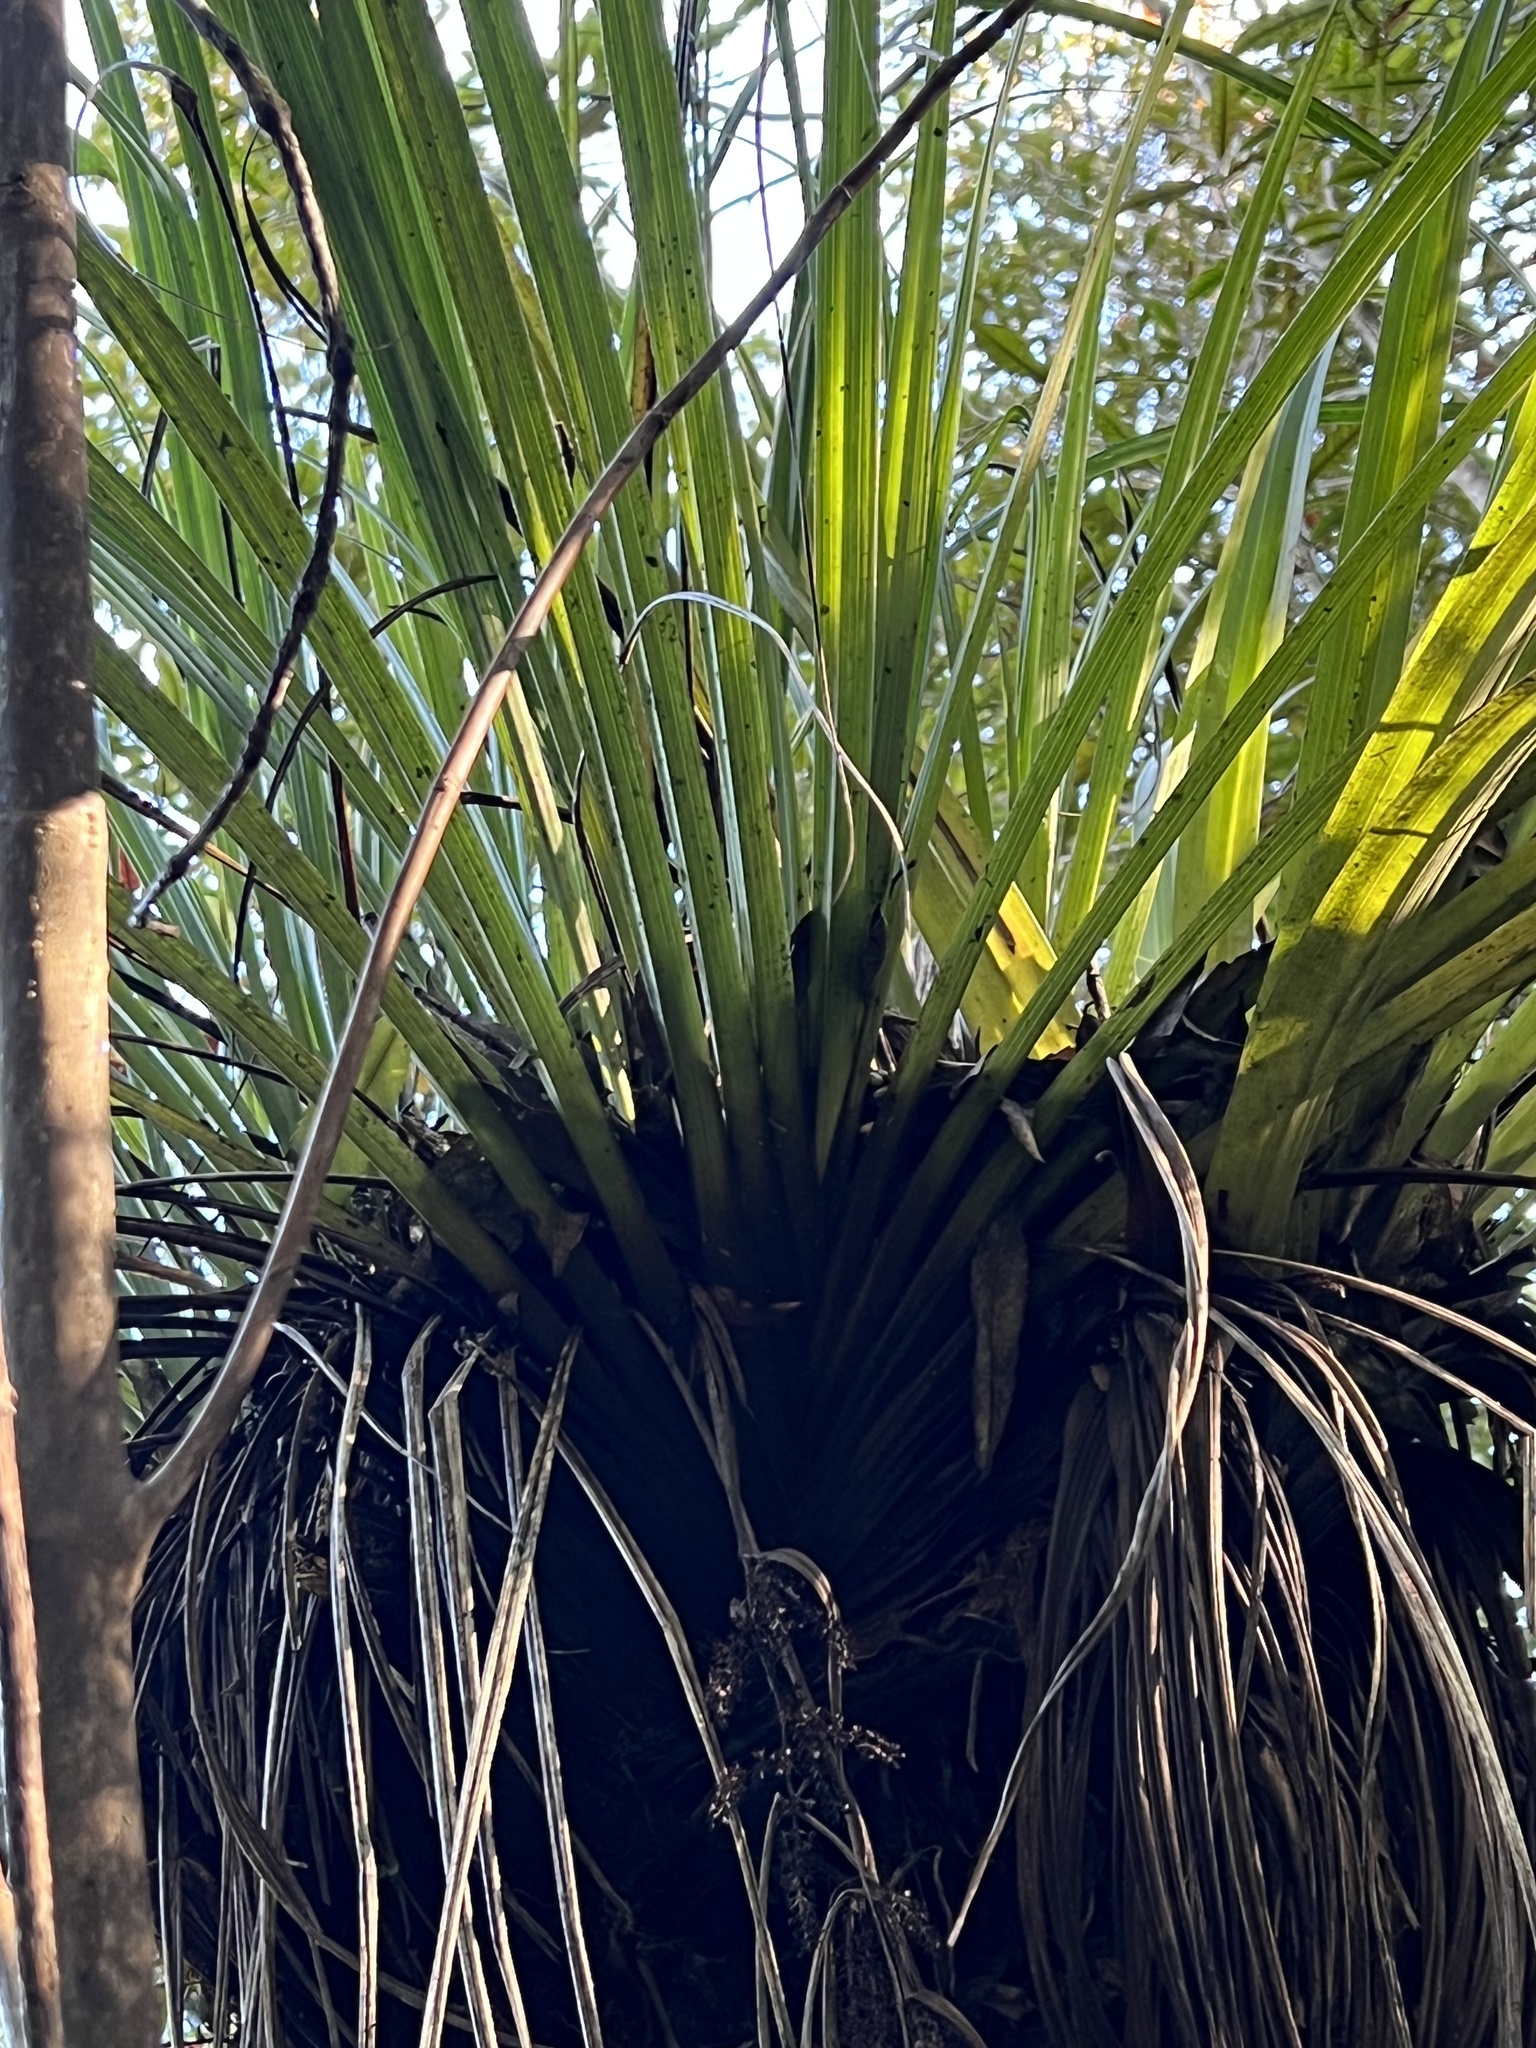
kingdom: Plantae
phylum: Tracheophyta
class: Liliopsida
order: Asparagales
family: Asteliaceae
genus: Astelia
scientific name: Astelia microsperma
